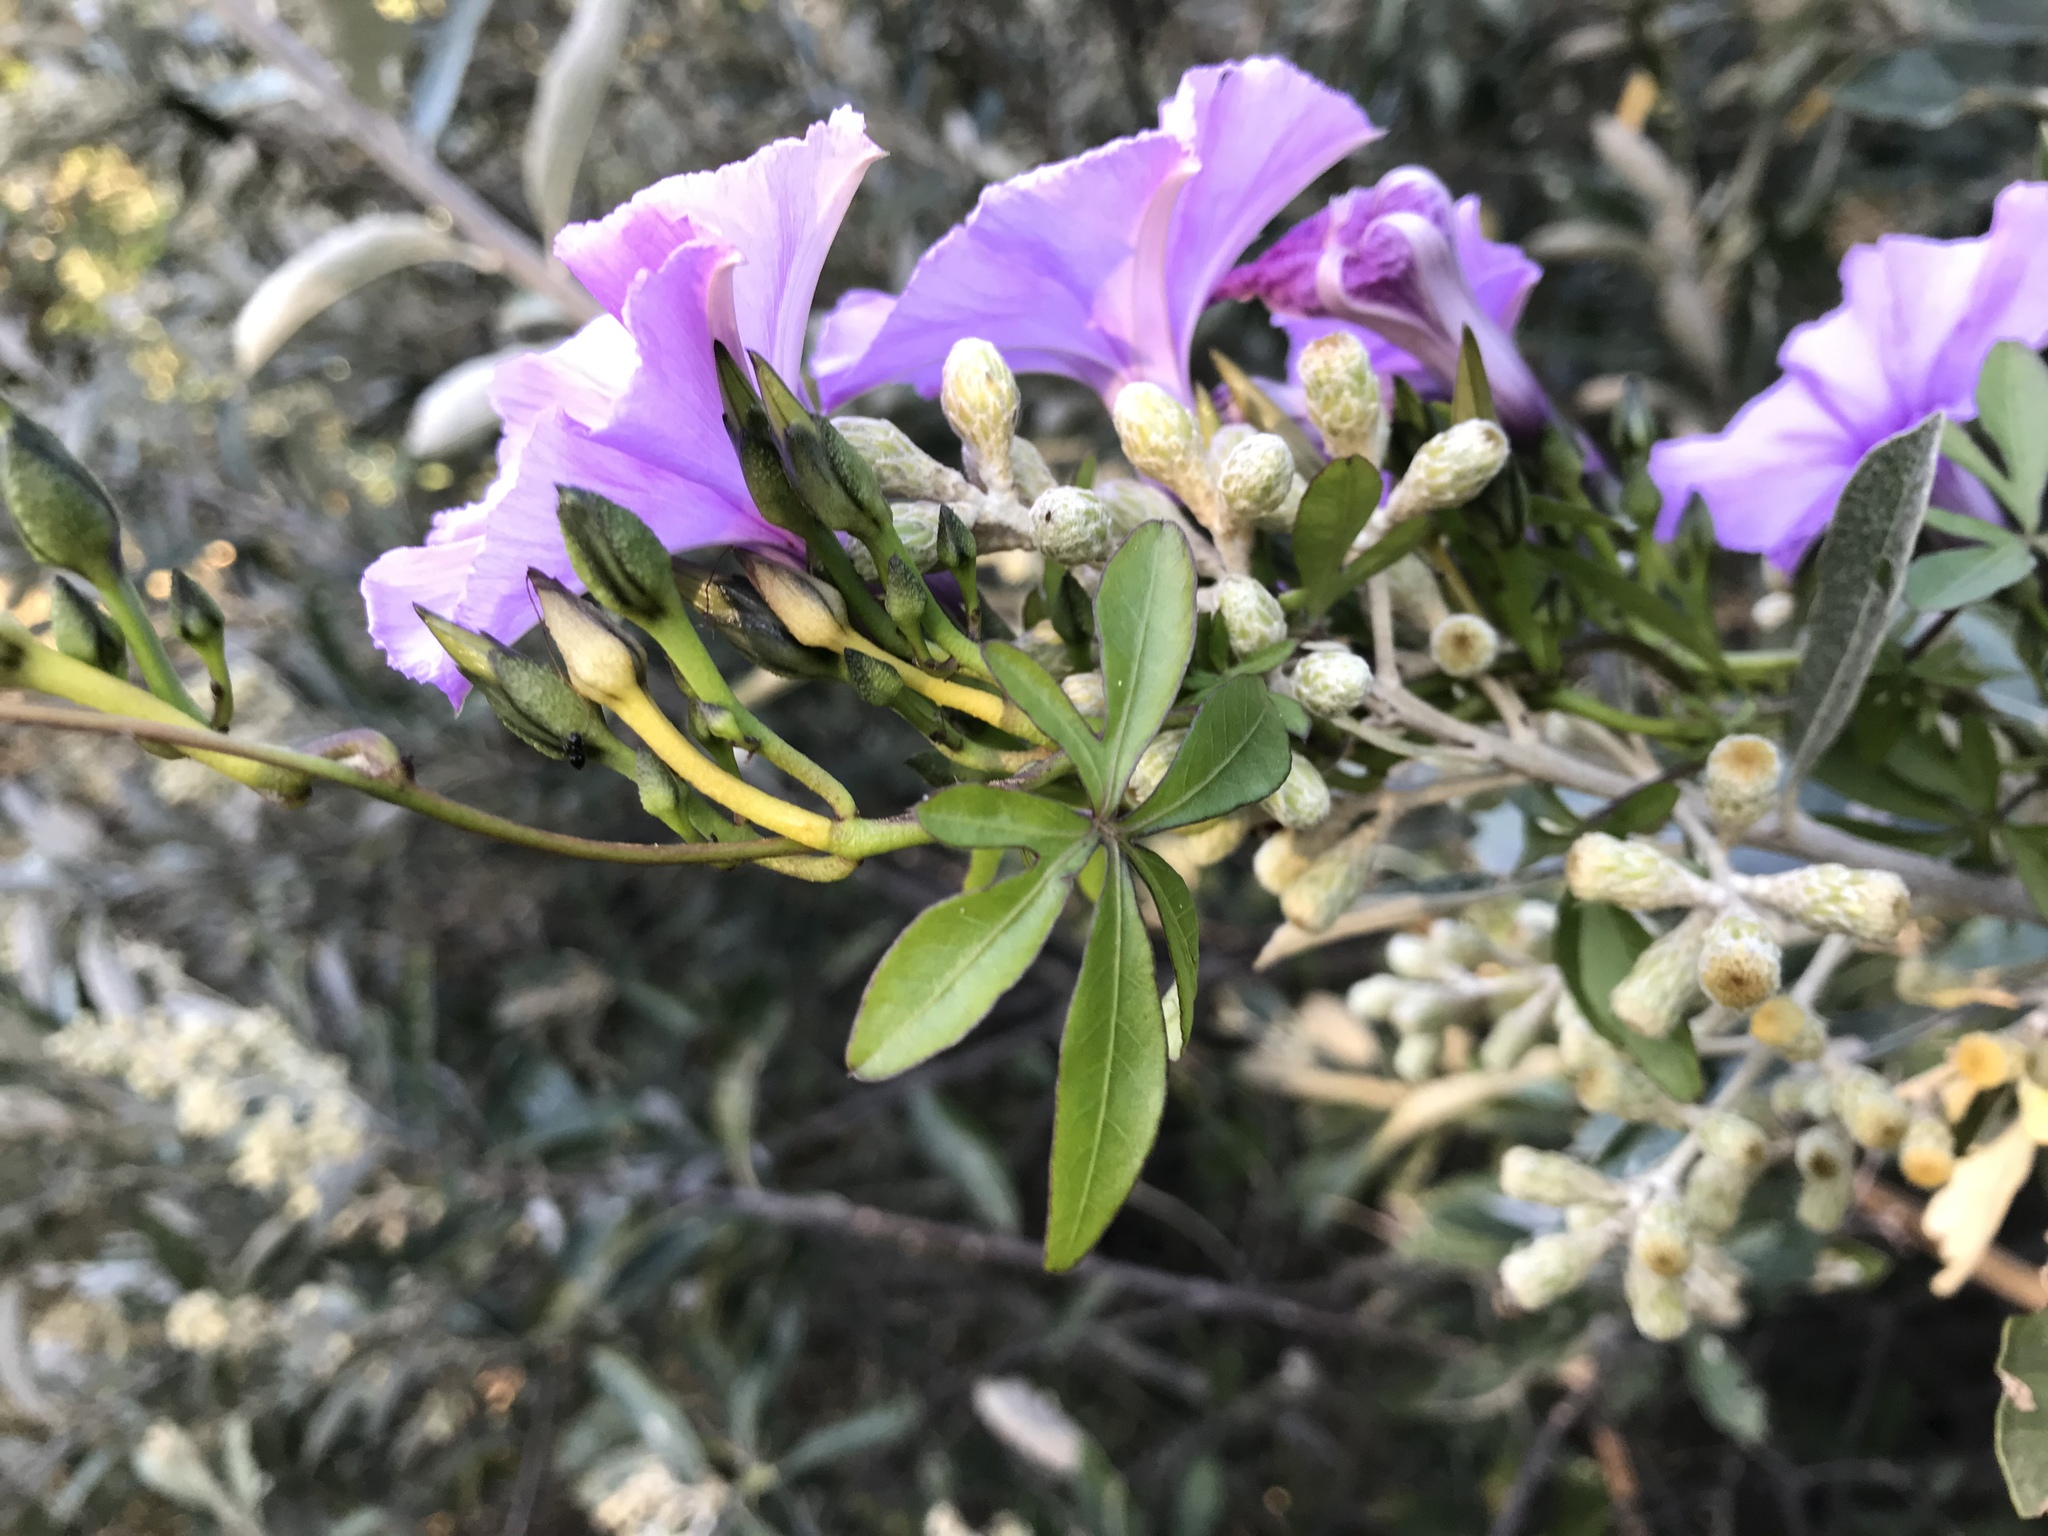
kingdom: Plantae
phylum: Tracheophyta
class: Magnoliopsida
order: Solanales
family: Convolvulaceae
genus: Ipomoea
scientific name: Ipomoea cairica
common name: Mile a minute vine
